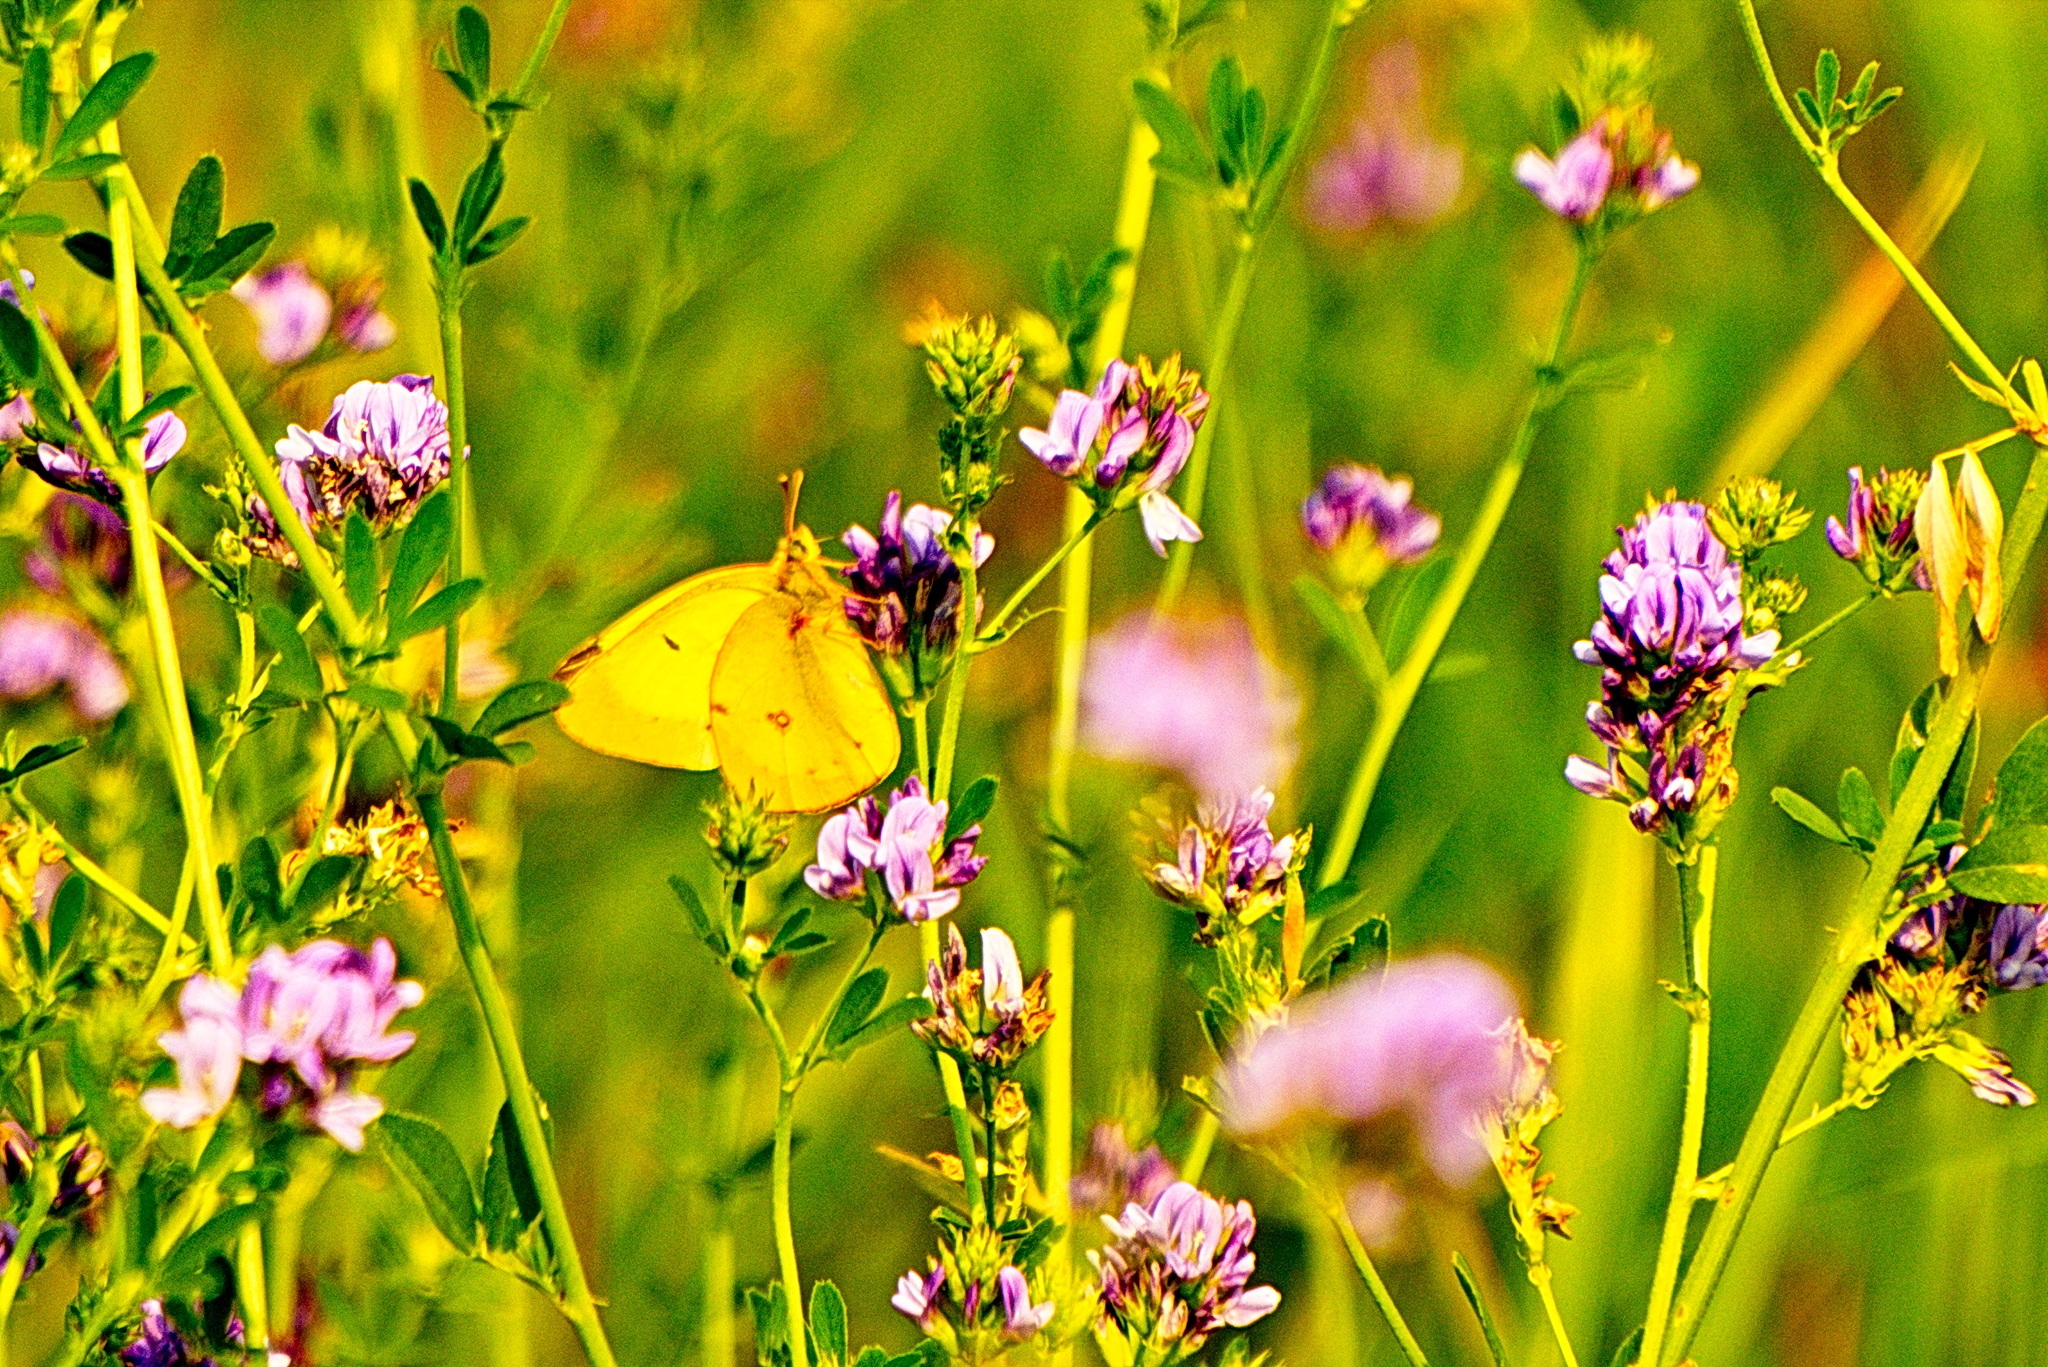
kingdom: Animalia
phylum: Arthropoda
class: Insecta
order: Lepidoptera
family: Pieridae
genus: Colias
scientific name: Colias philodice
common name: Clouded sulphur
